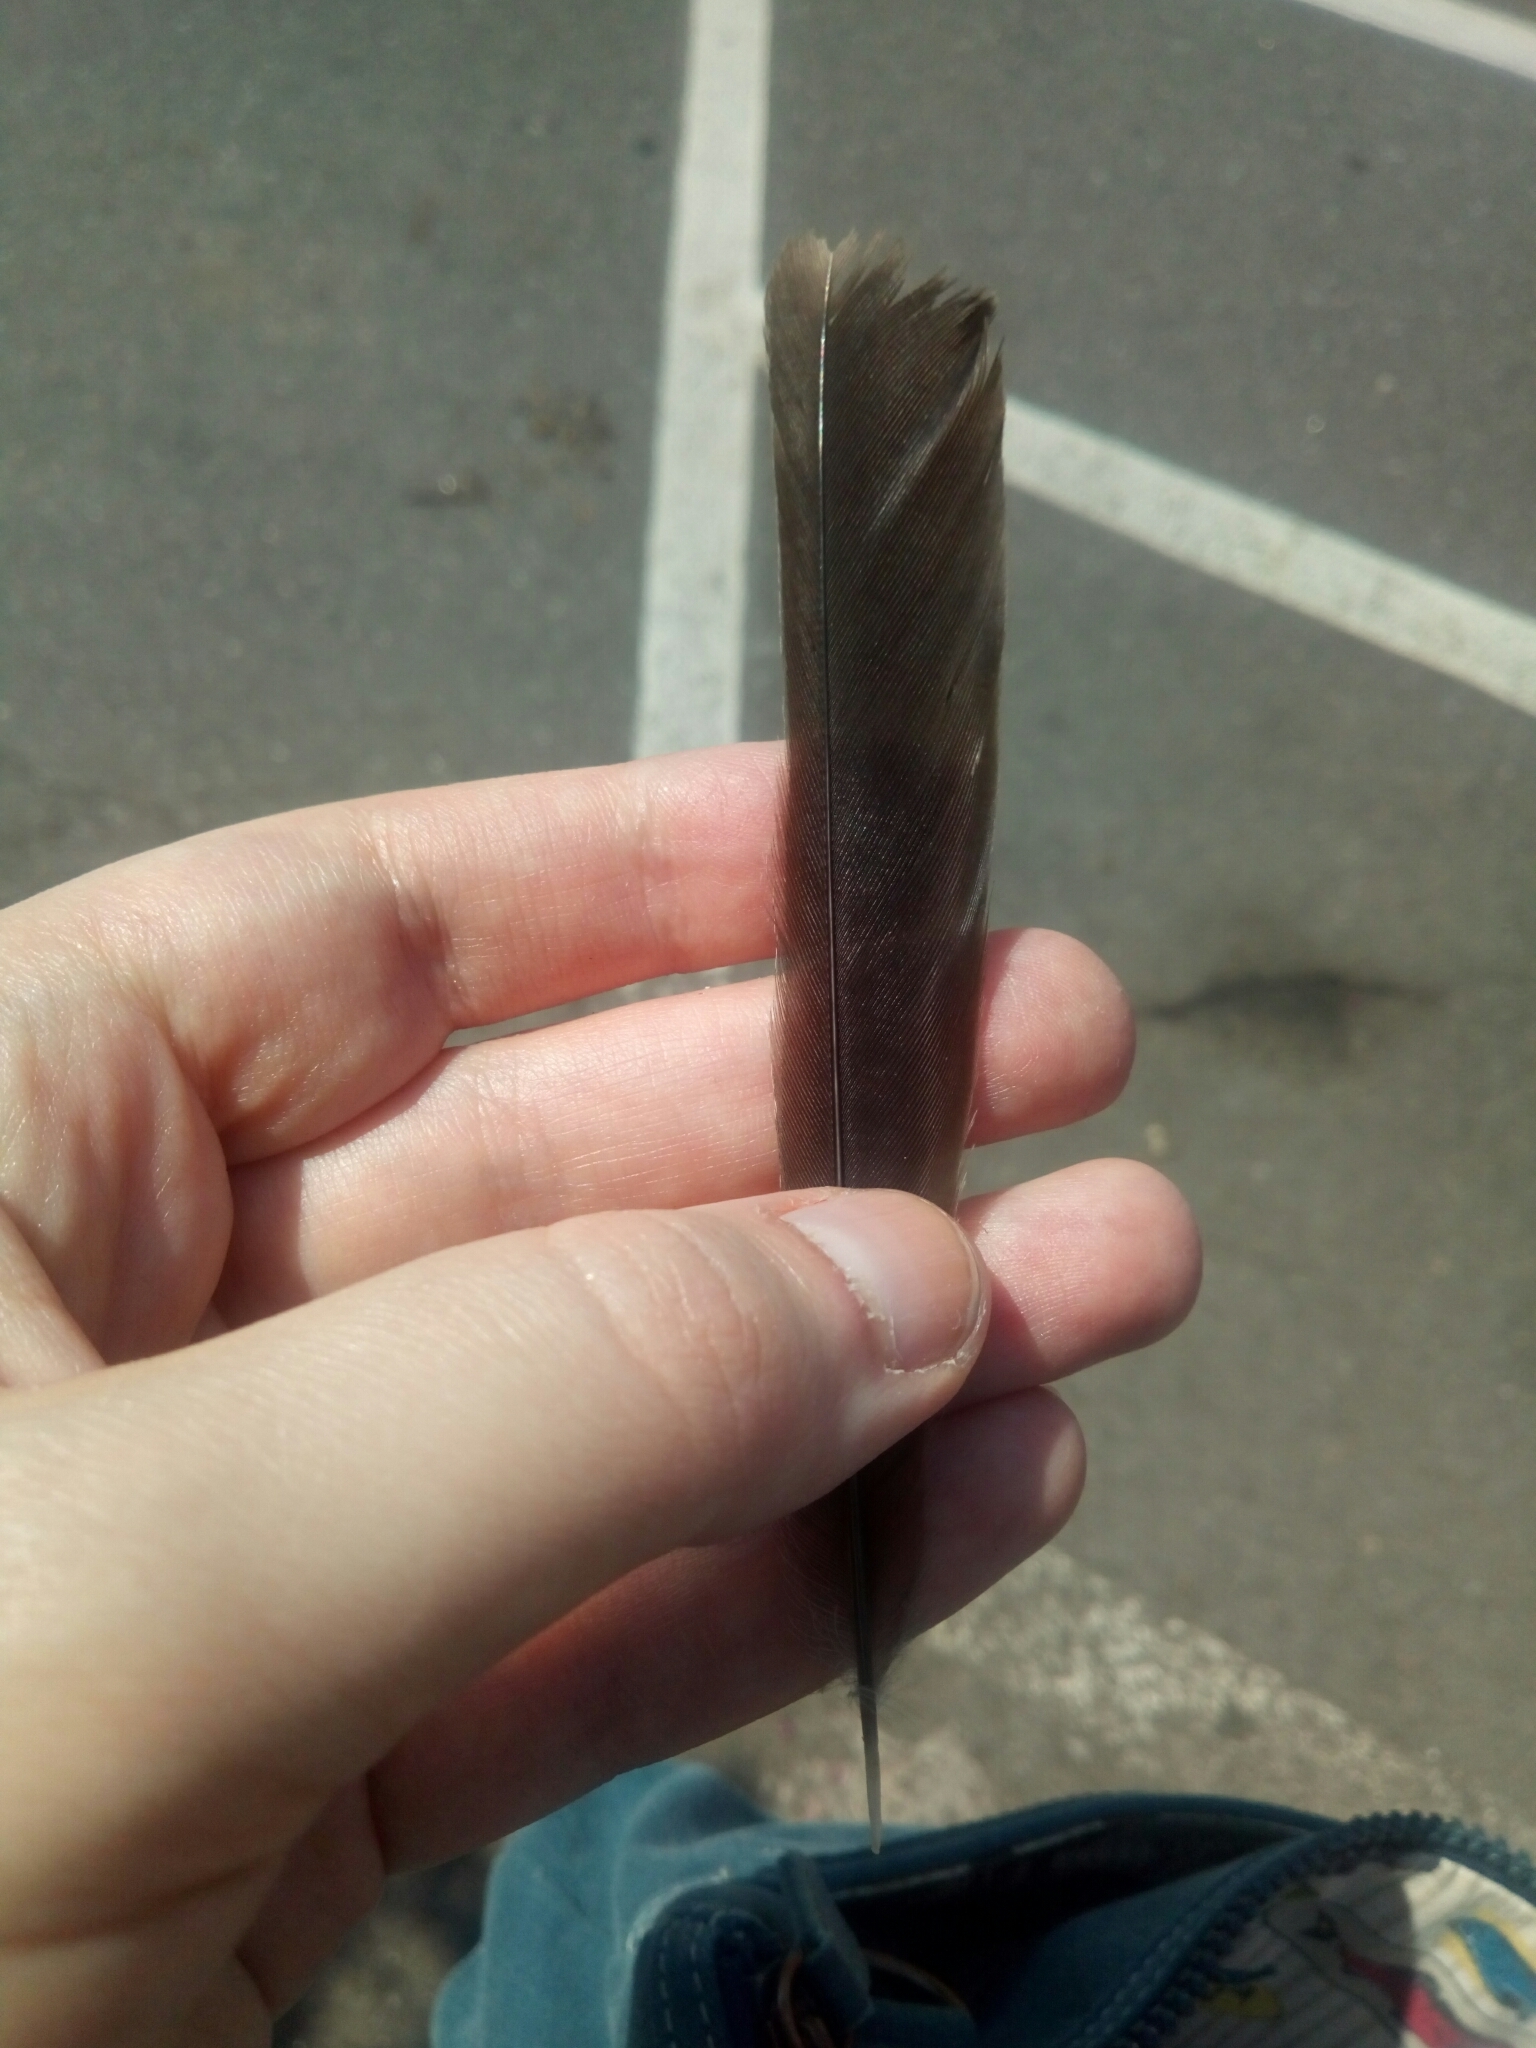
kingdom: Animalia
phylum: Chordata
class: Aves
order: Passeriformes
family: Mimidae
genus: Mimus
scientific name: Mimus polyglottos
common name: Northern mockingbird
